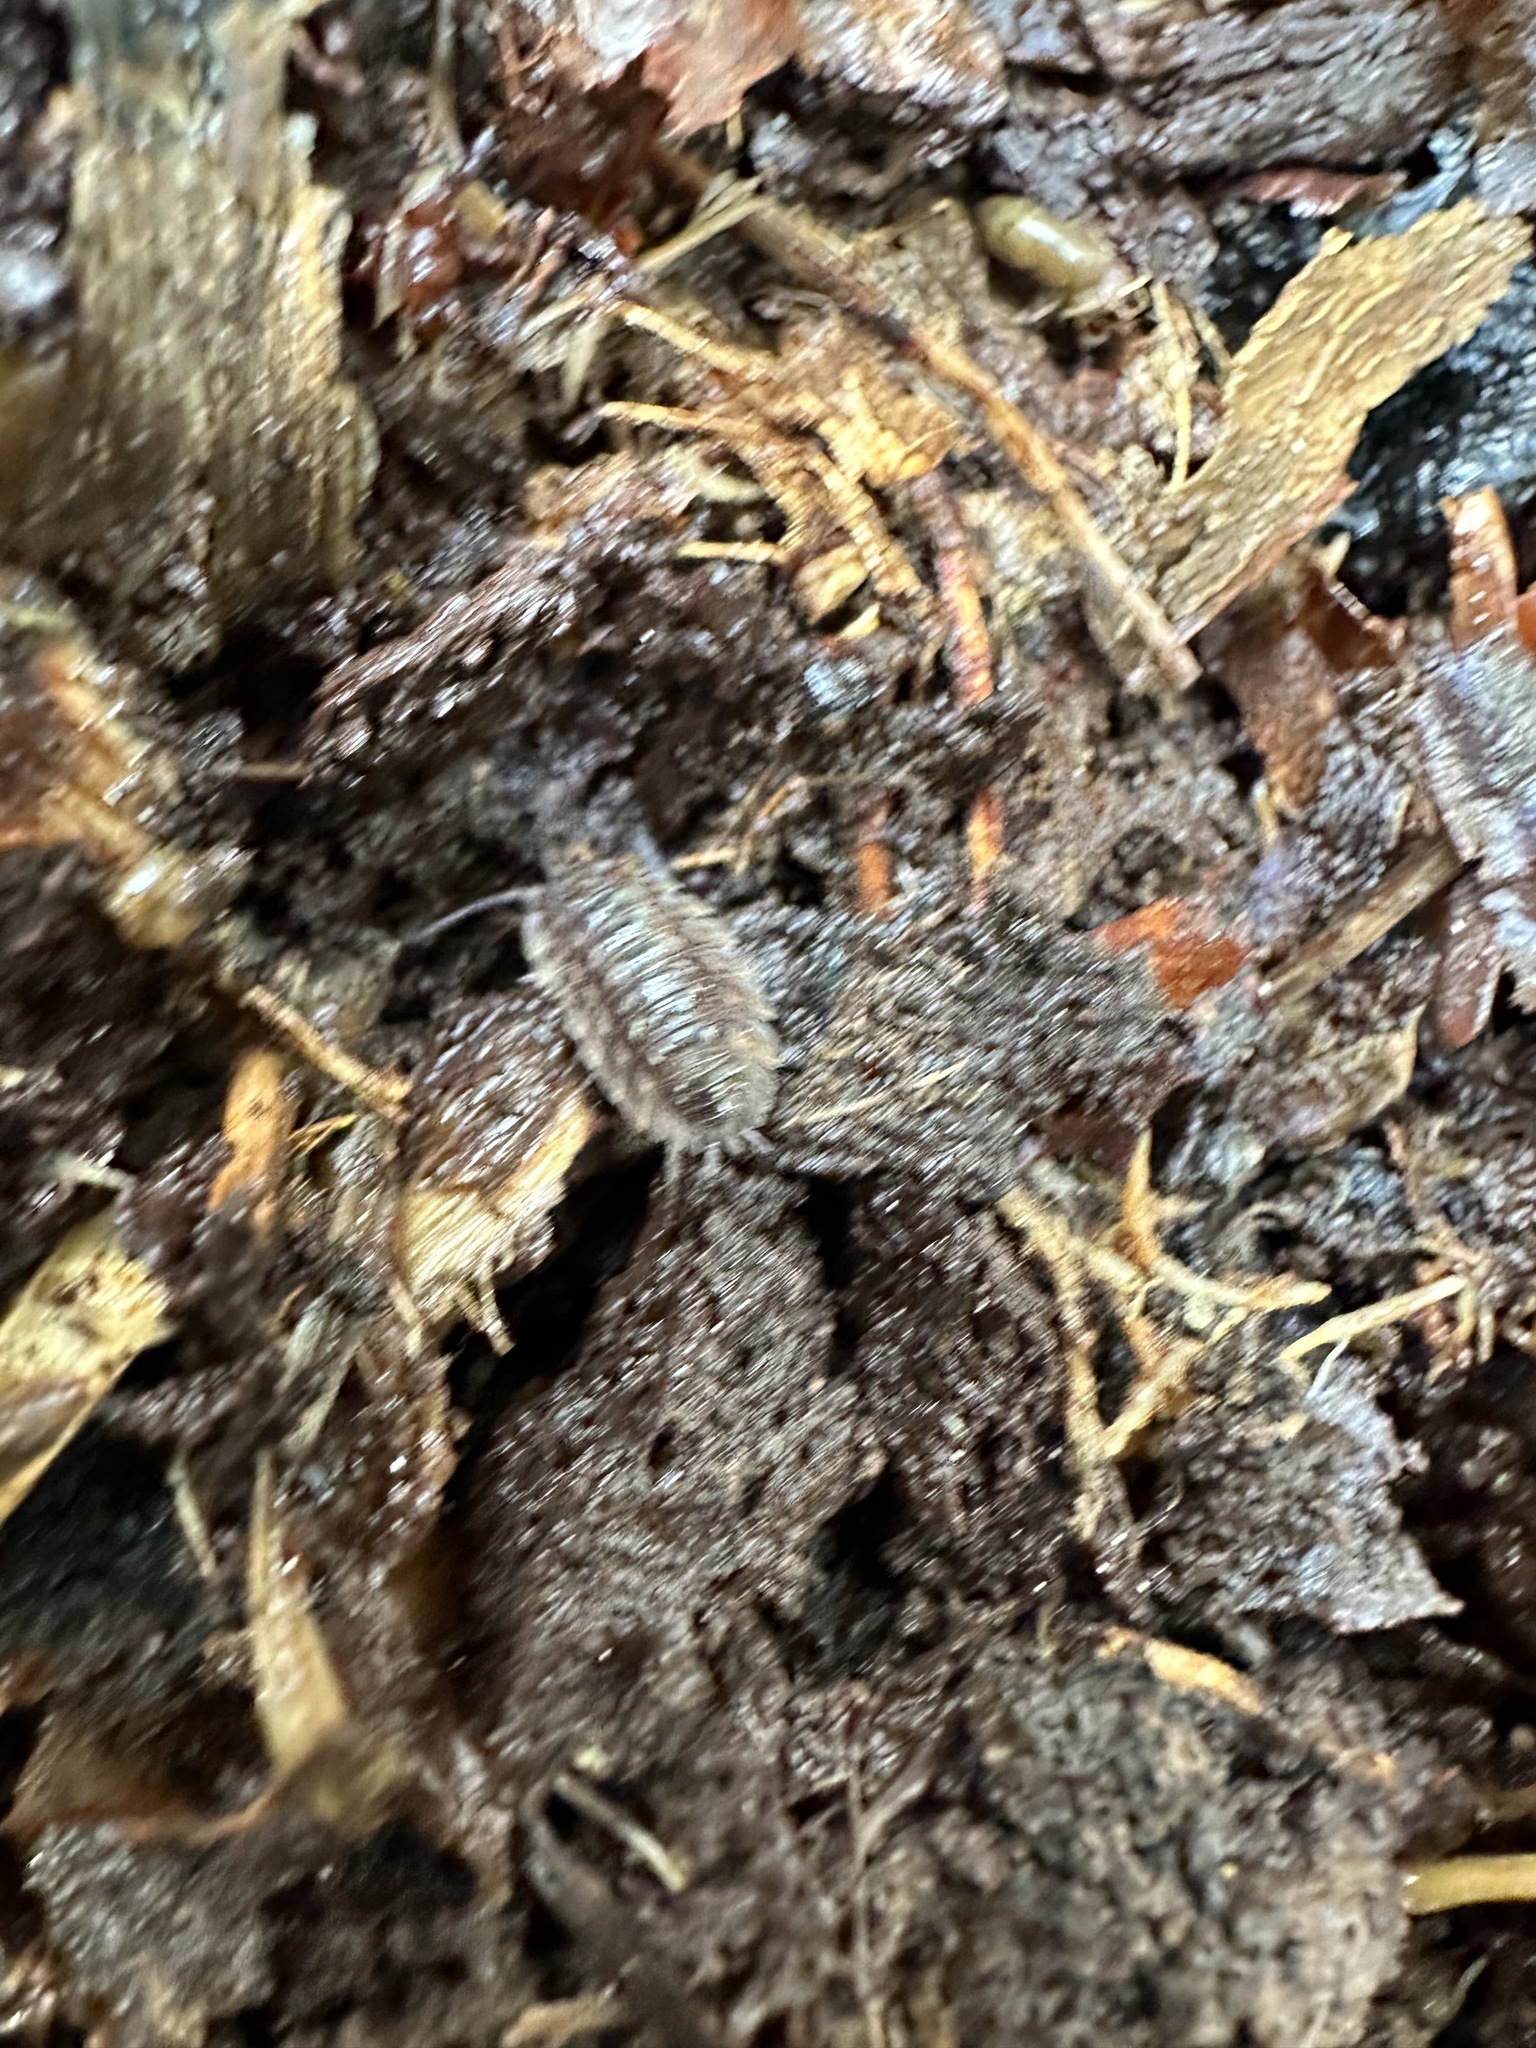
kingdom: Animalia
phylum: Arthropoda
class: Malacostraca
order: Isopoda
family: Oniscidae
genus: Oniscus
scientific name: Oniscus asellus
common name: Common shiny woodlouse
